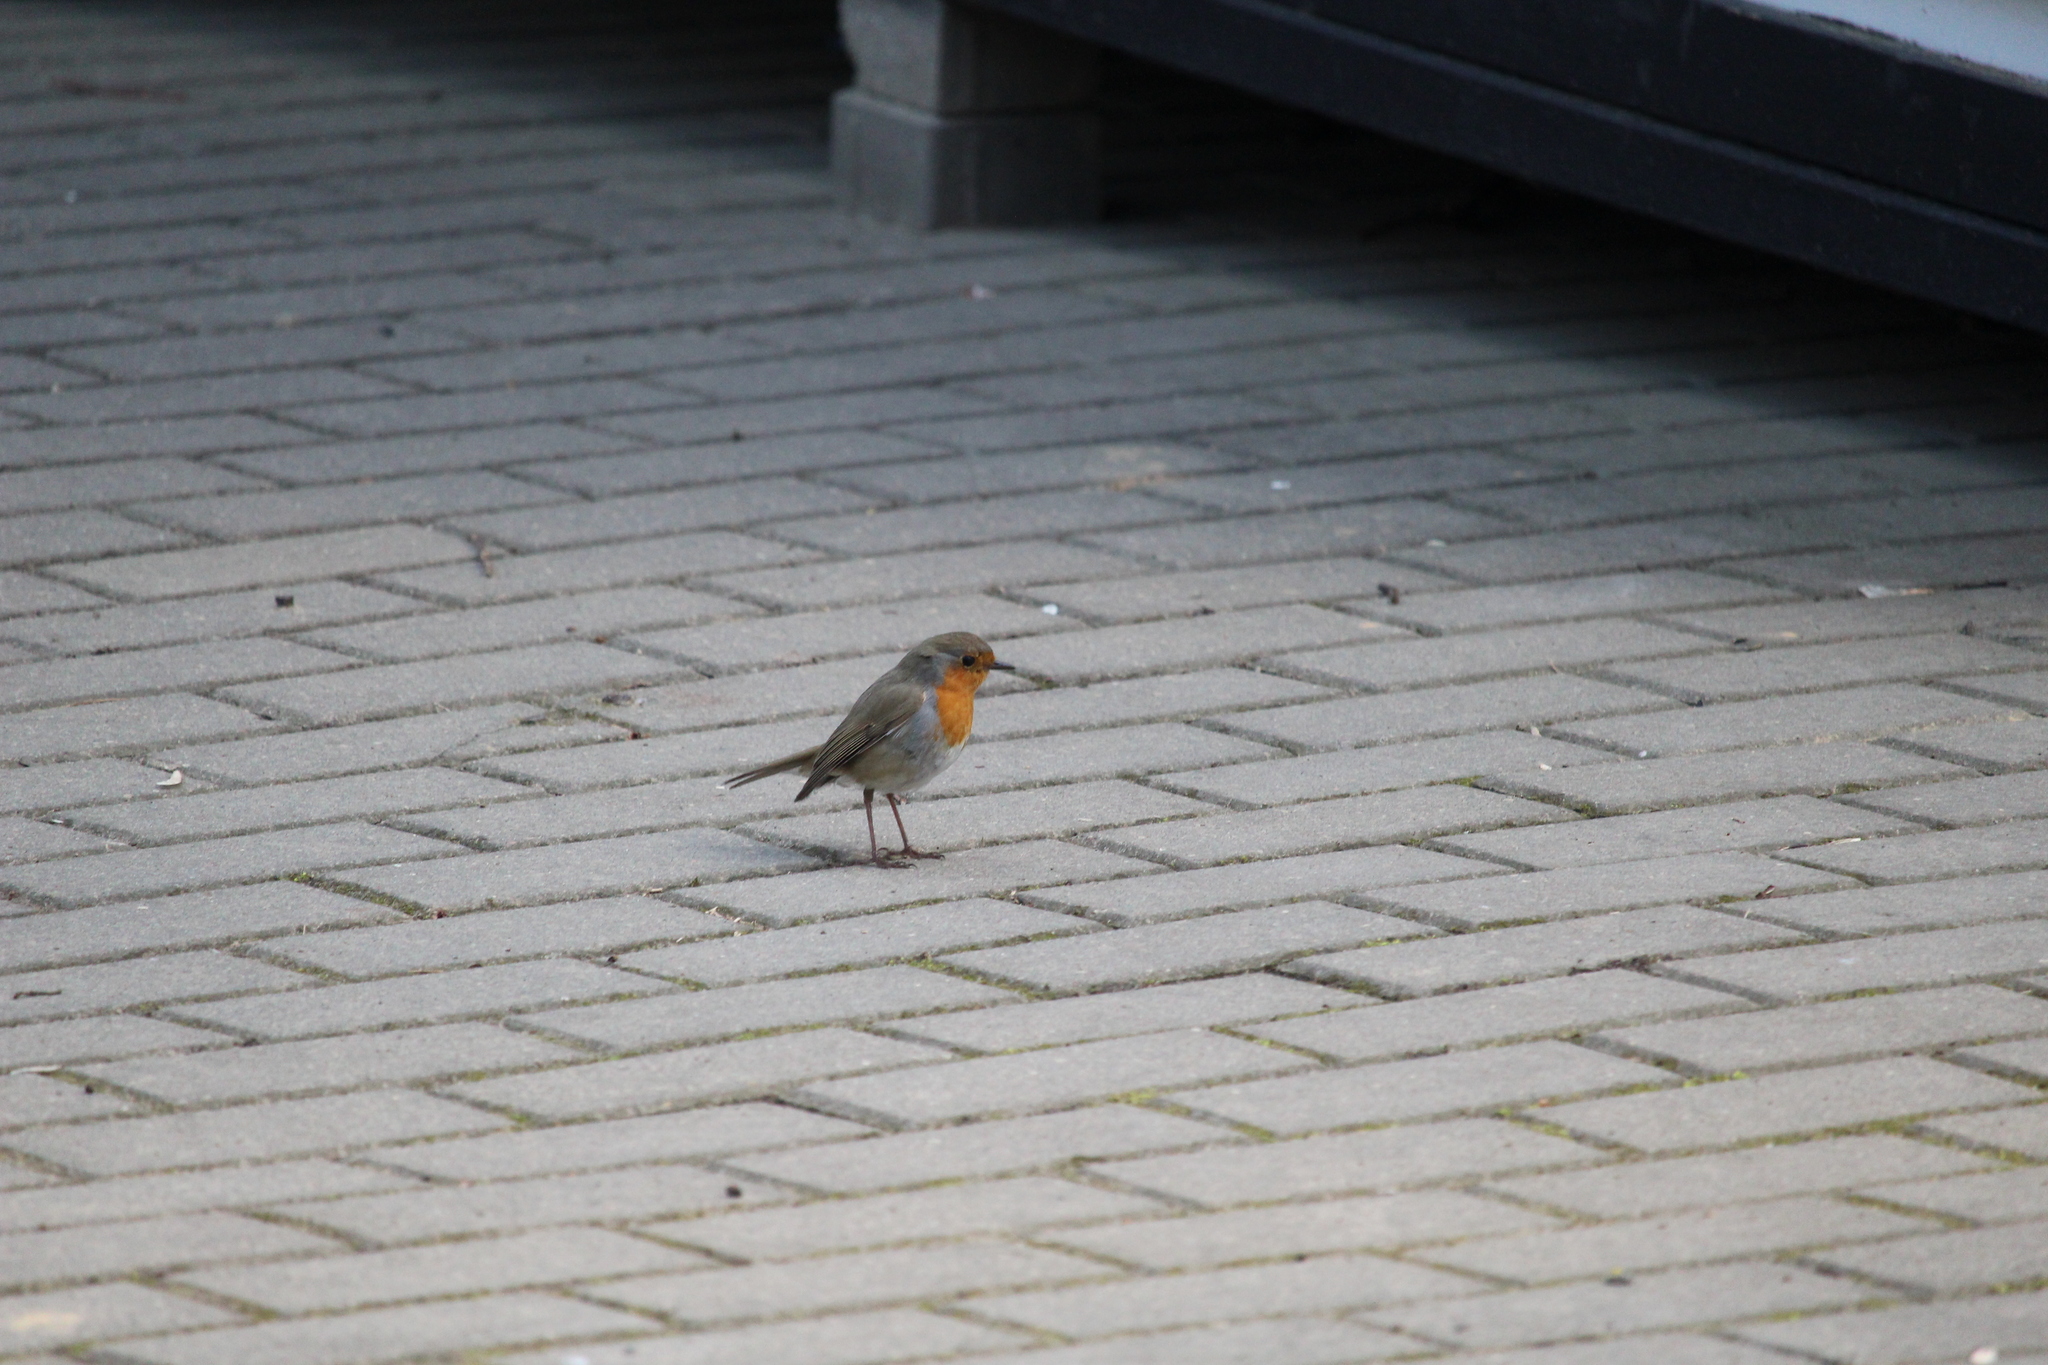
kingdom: Animalia
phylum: Chordata
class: Aves
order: Passeriformes
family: Muscicapidae
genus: Erithacus
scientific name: Erithacus rubecula
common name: European robin
